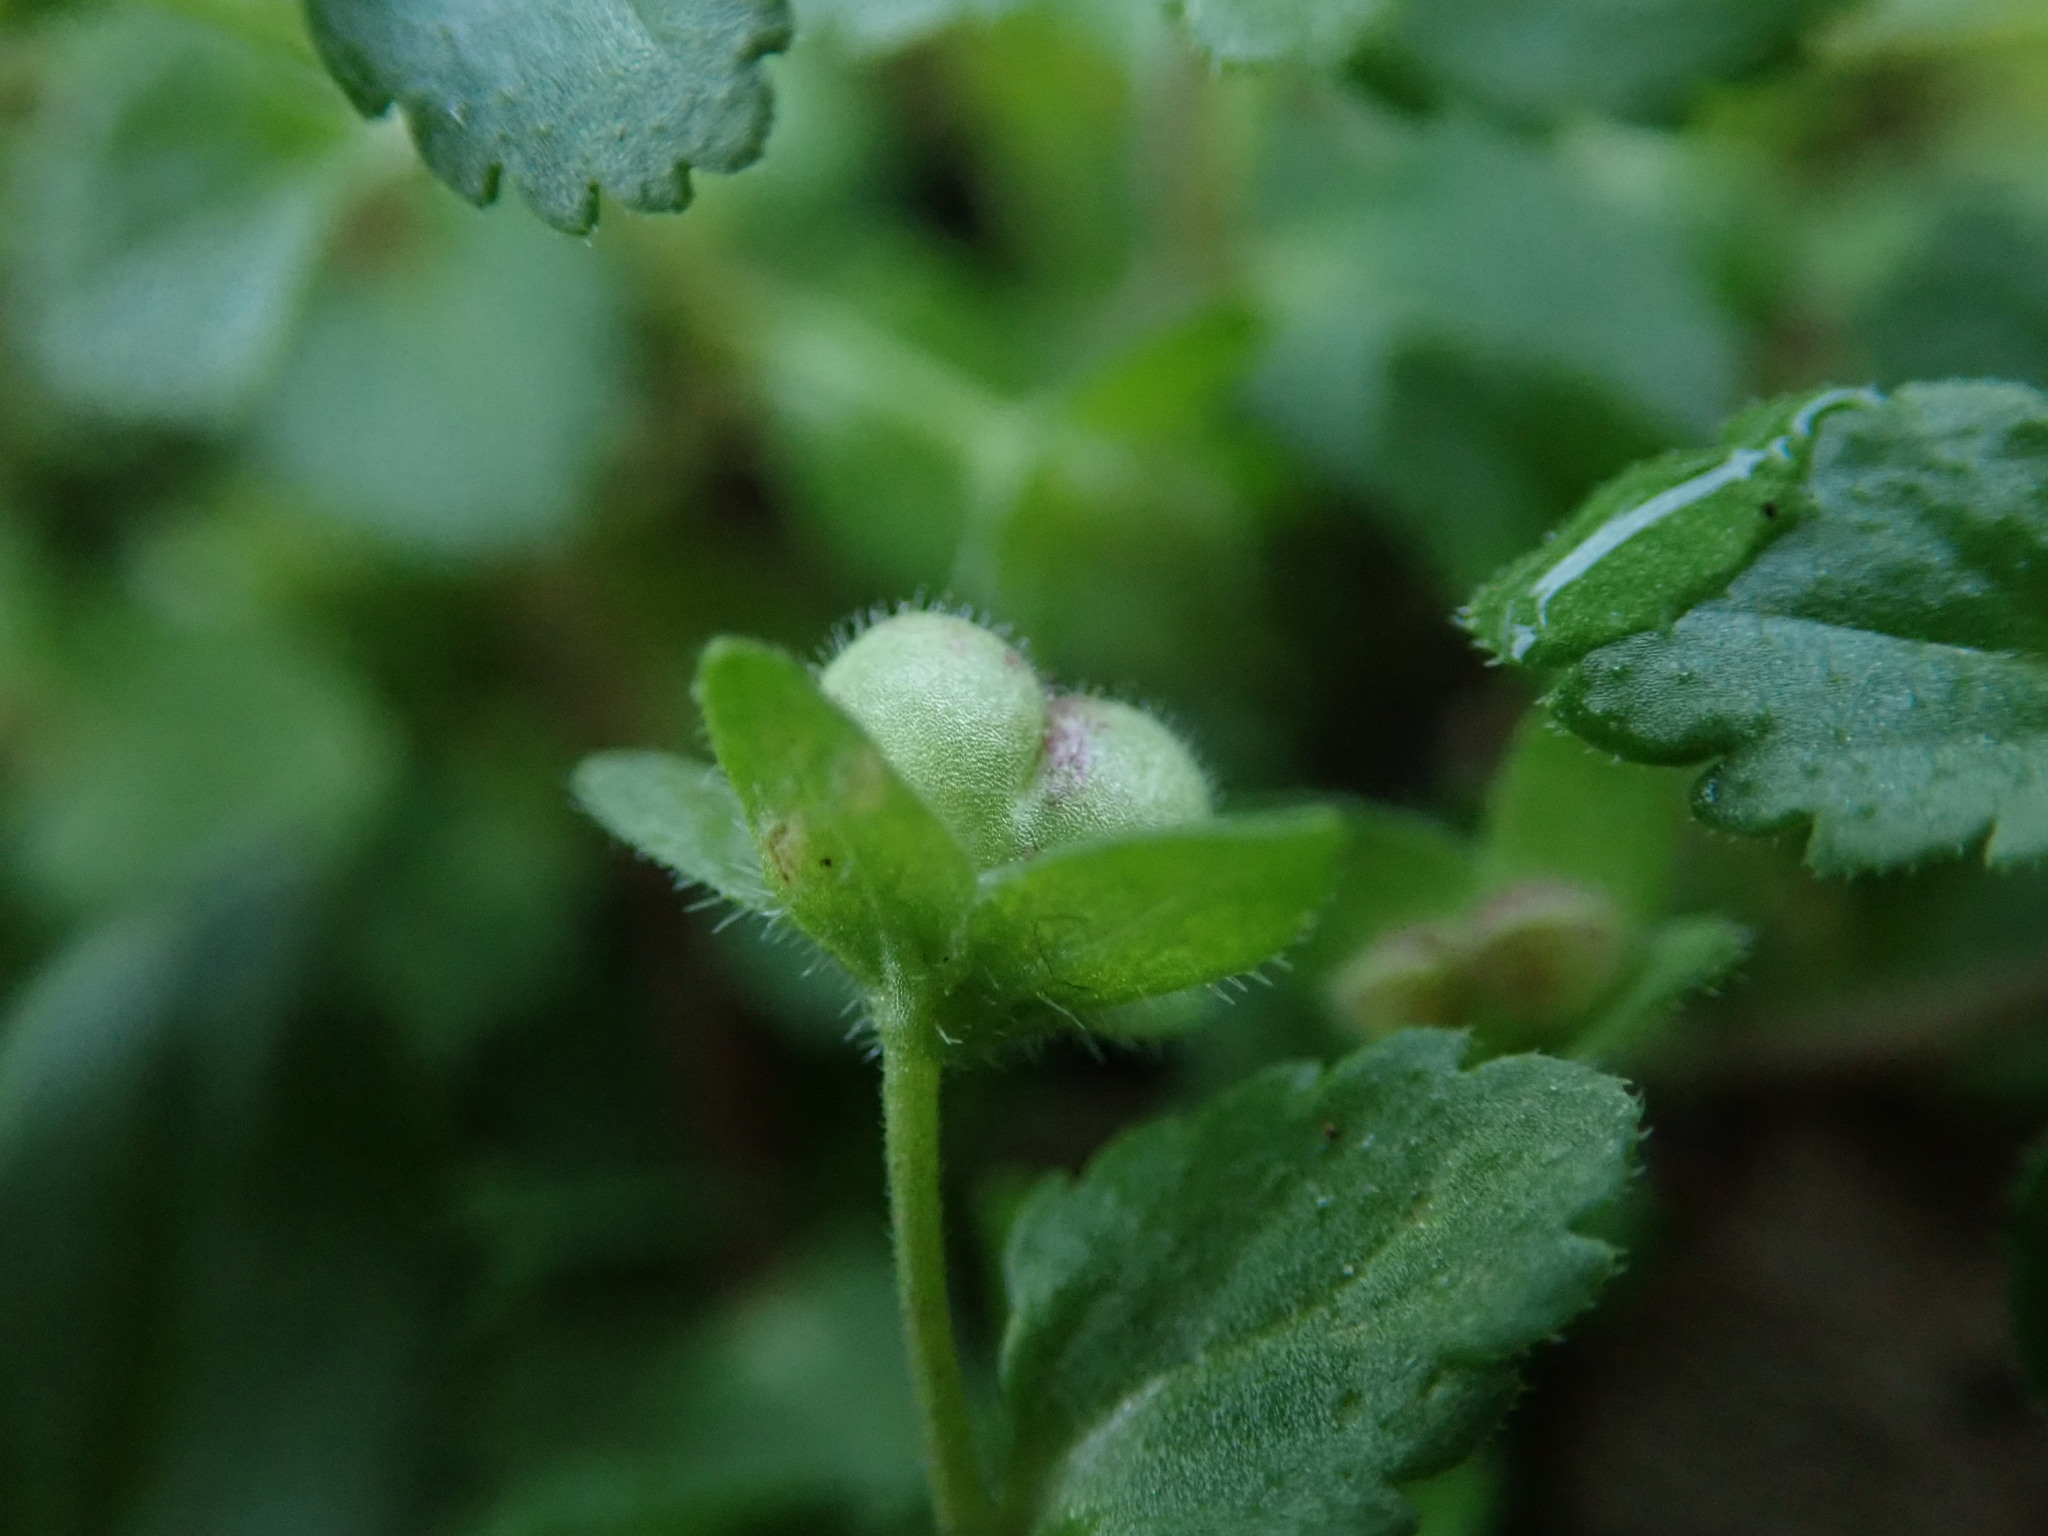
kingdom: Plantae
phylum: Tracheophyta
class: Magnoliopsida
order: Lamiales
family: Plantaginaceae
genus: Veronica
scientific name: Veronica agrestis
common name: Green field-speedwell
